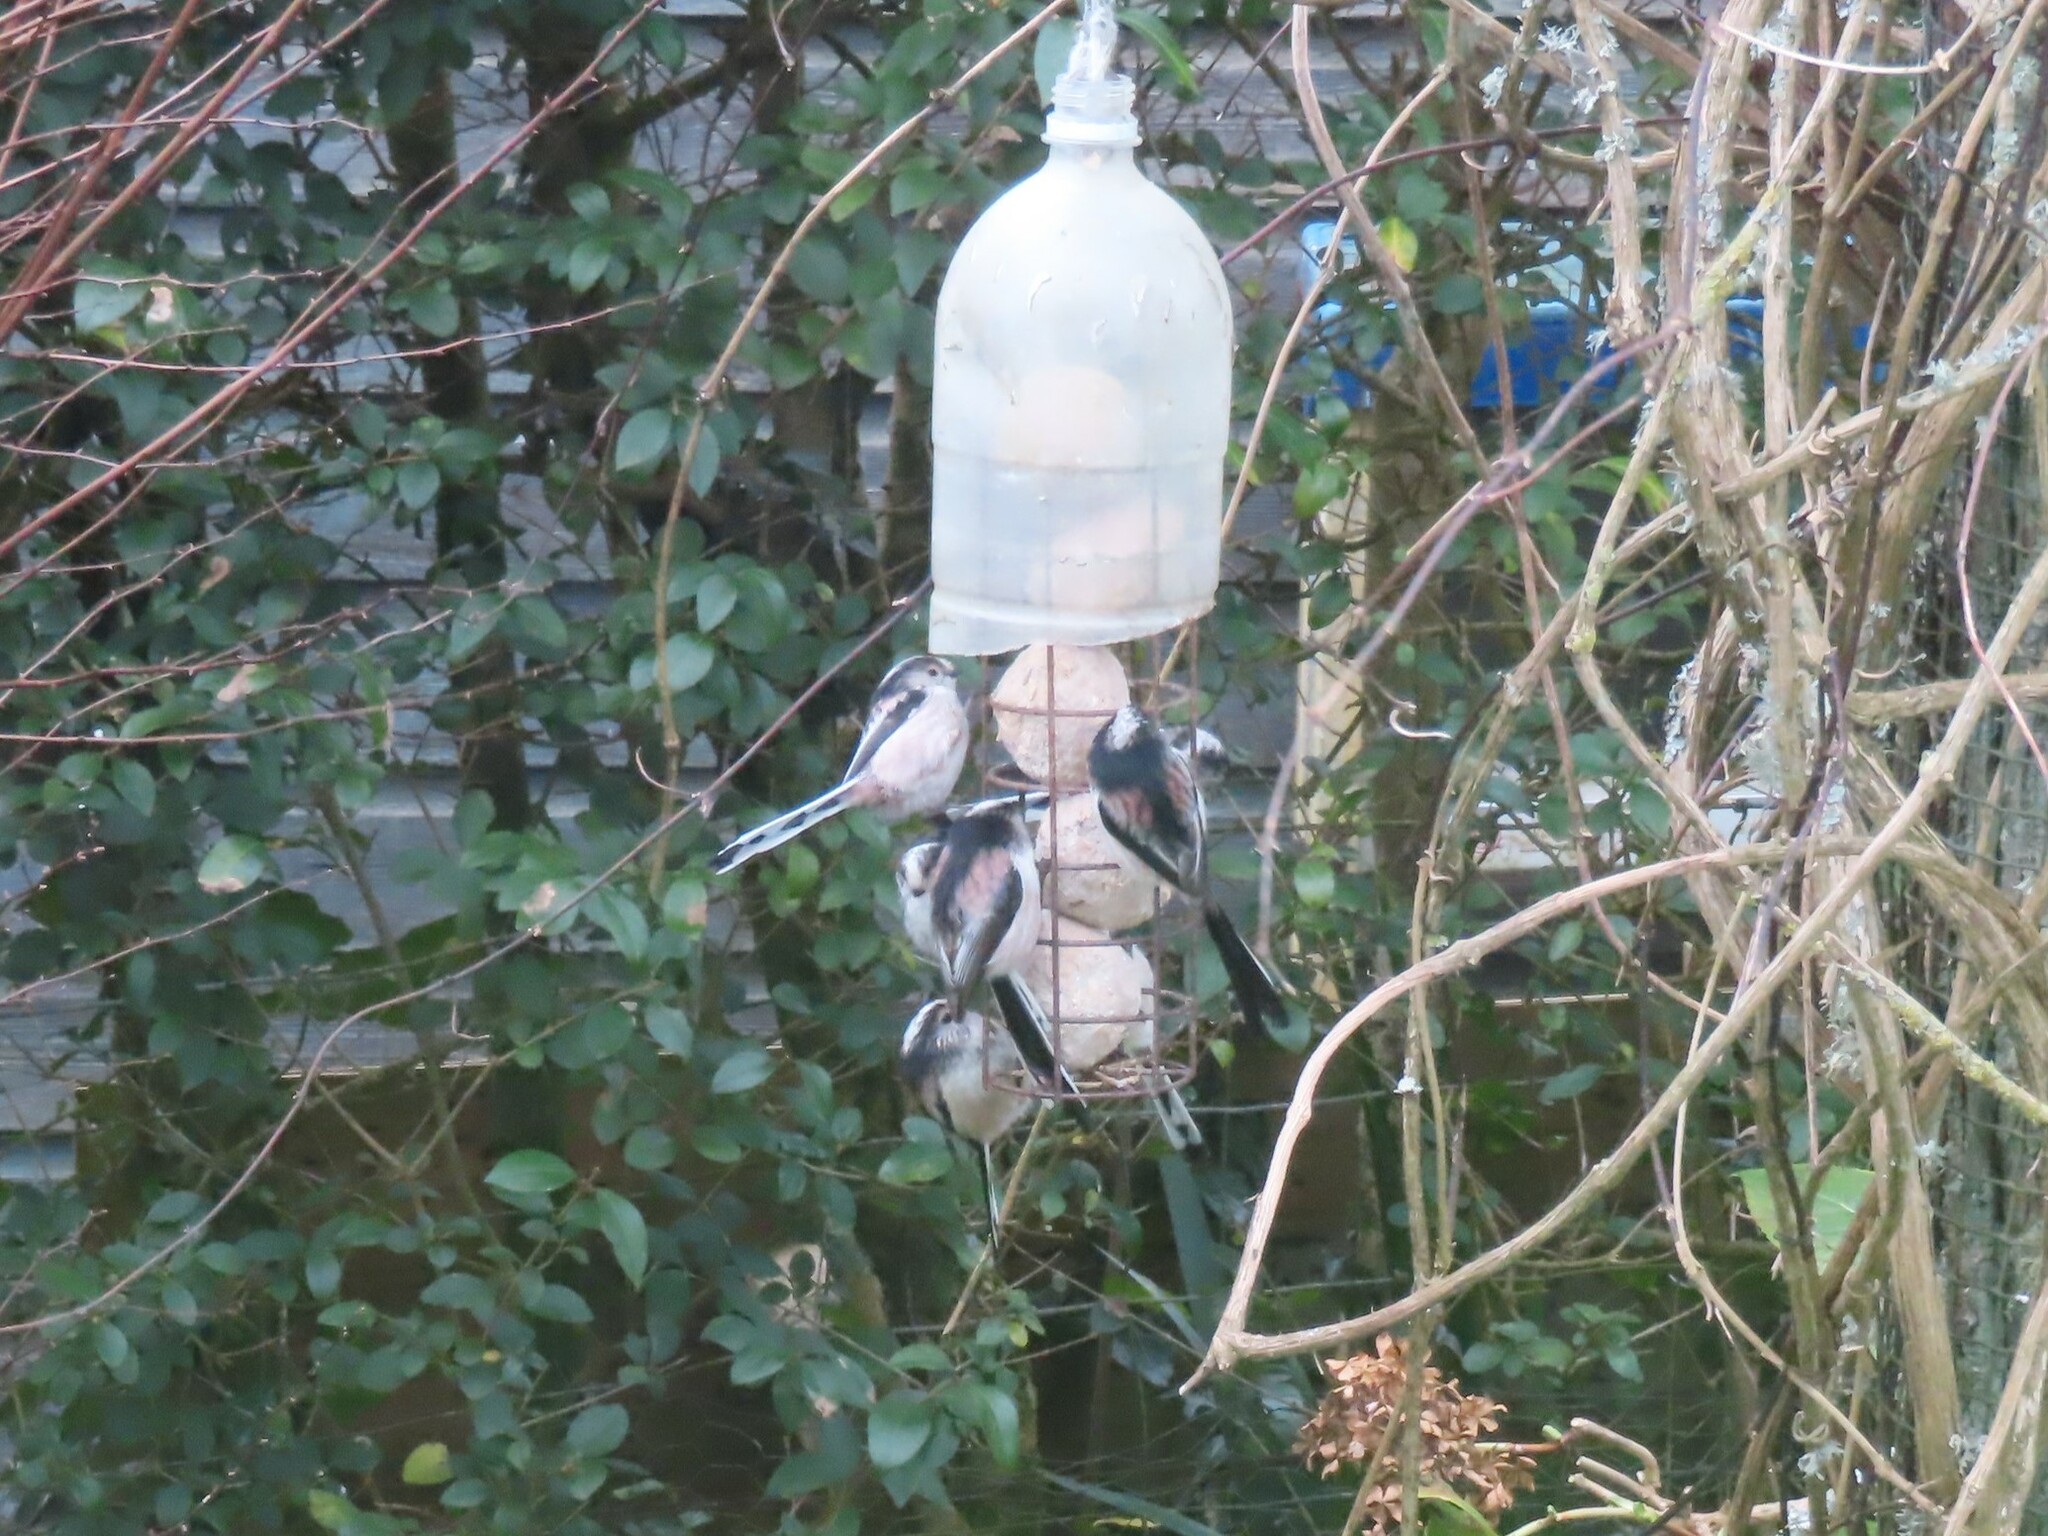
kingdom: Animalia
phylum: Chordata
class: Aves
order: Passeriformes
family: Aegithalidae
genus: Aegithalos
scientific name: Aegithalos caudatus
